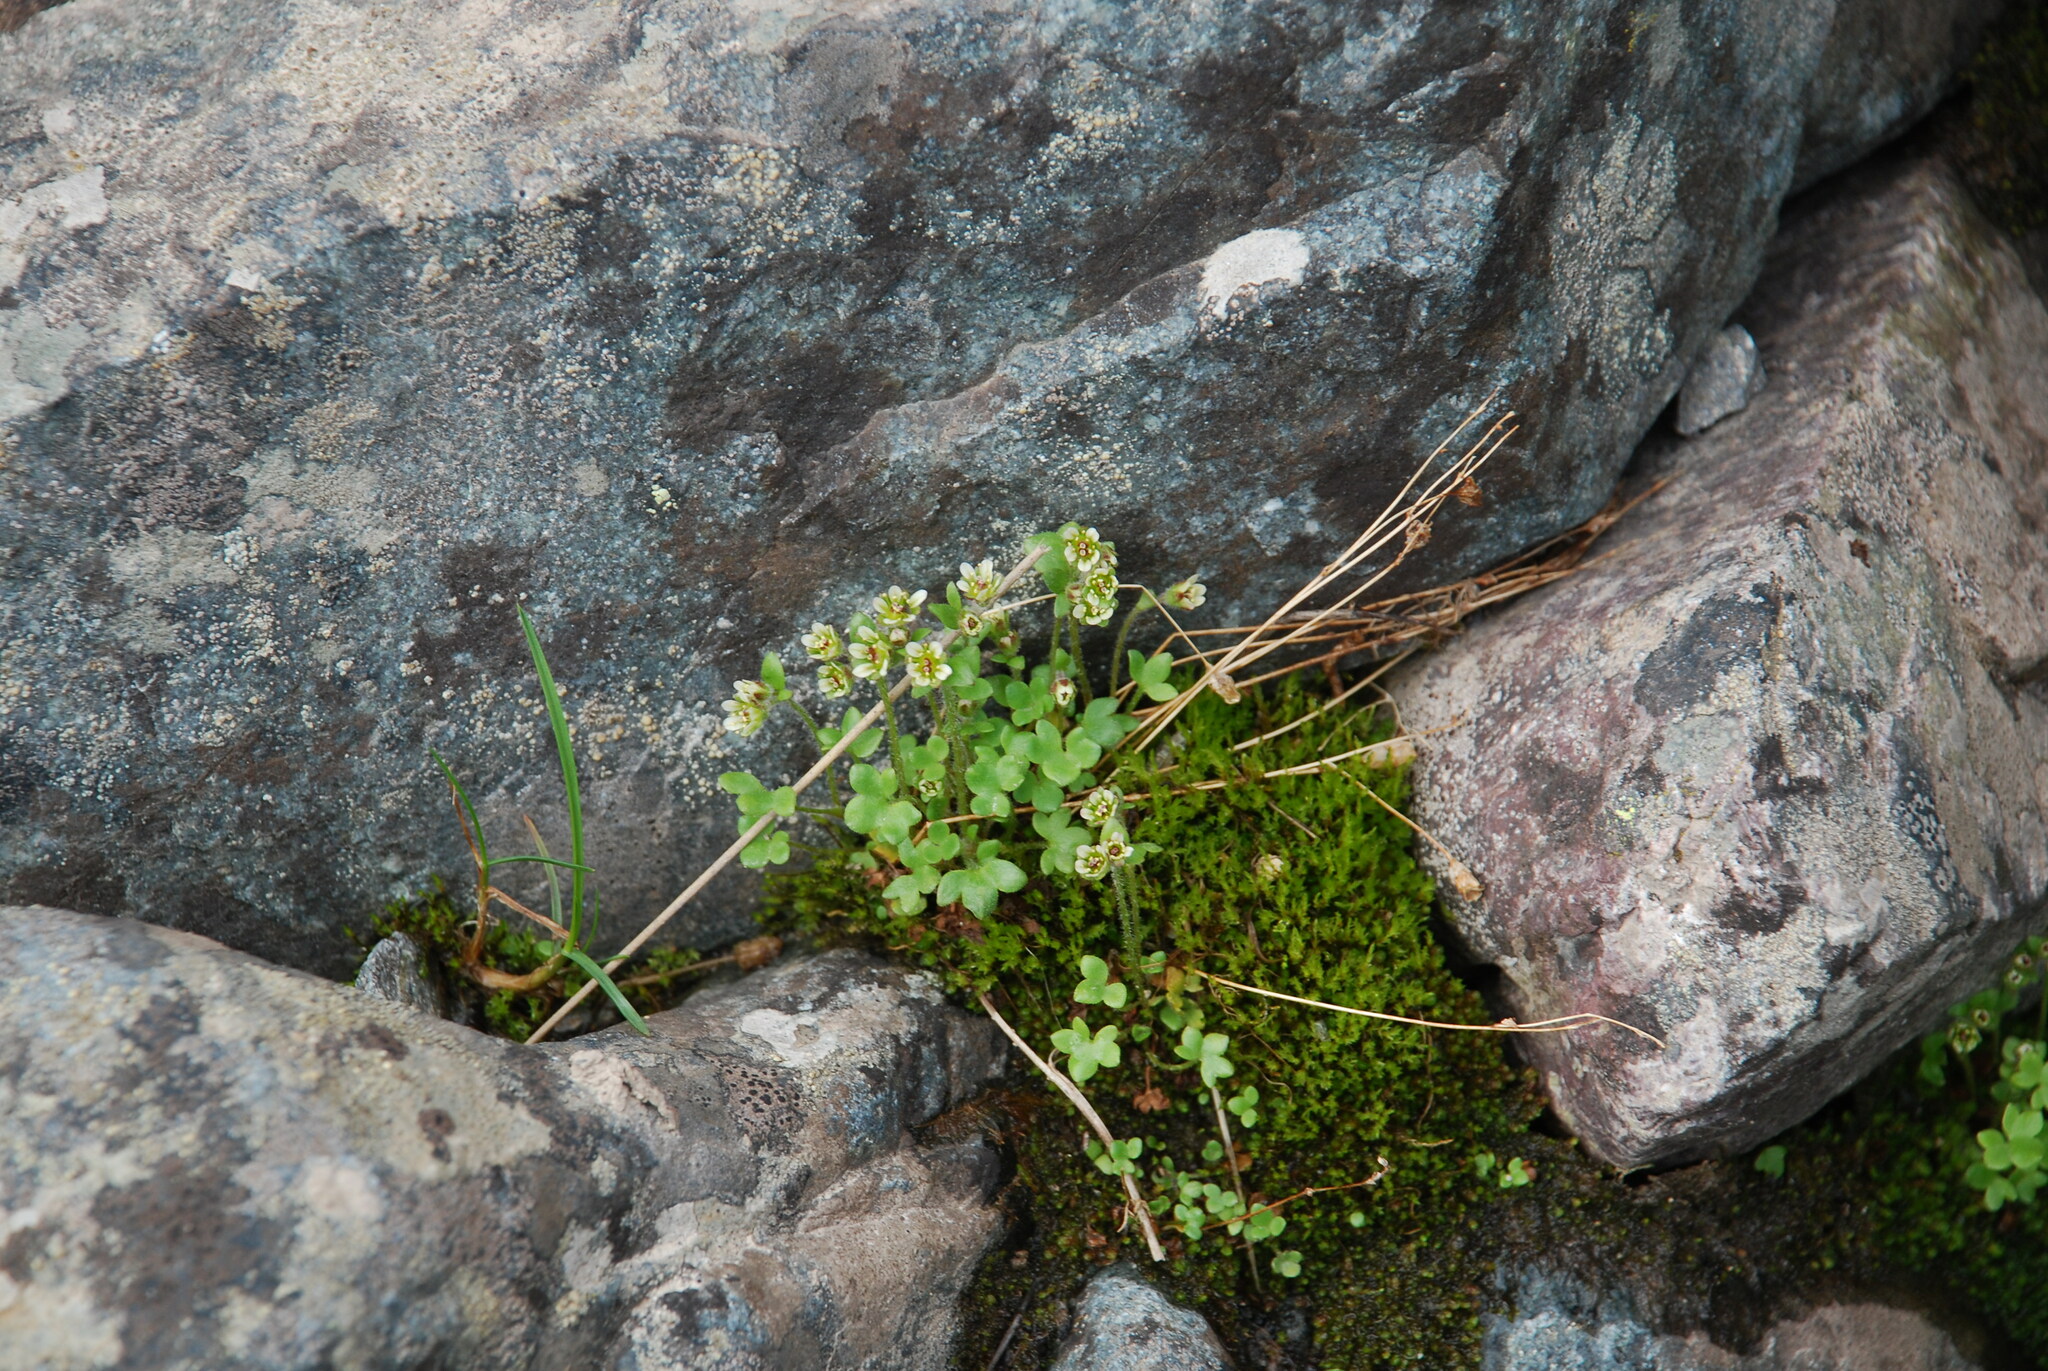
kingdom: Plantae
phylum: Tracheophyta
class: Magnoliopsida
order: Saxifragales
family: Saxifragaceae
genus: Saxifraga
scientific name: Saxifraga hyperborea
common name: Arctic saxifrage
